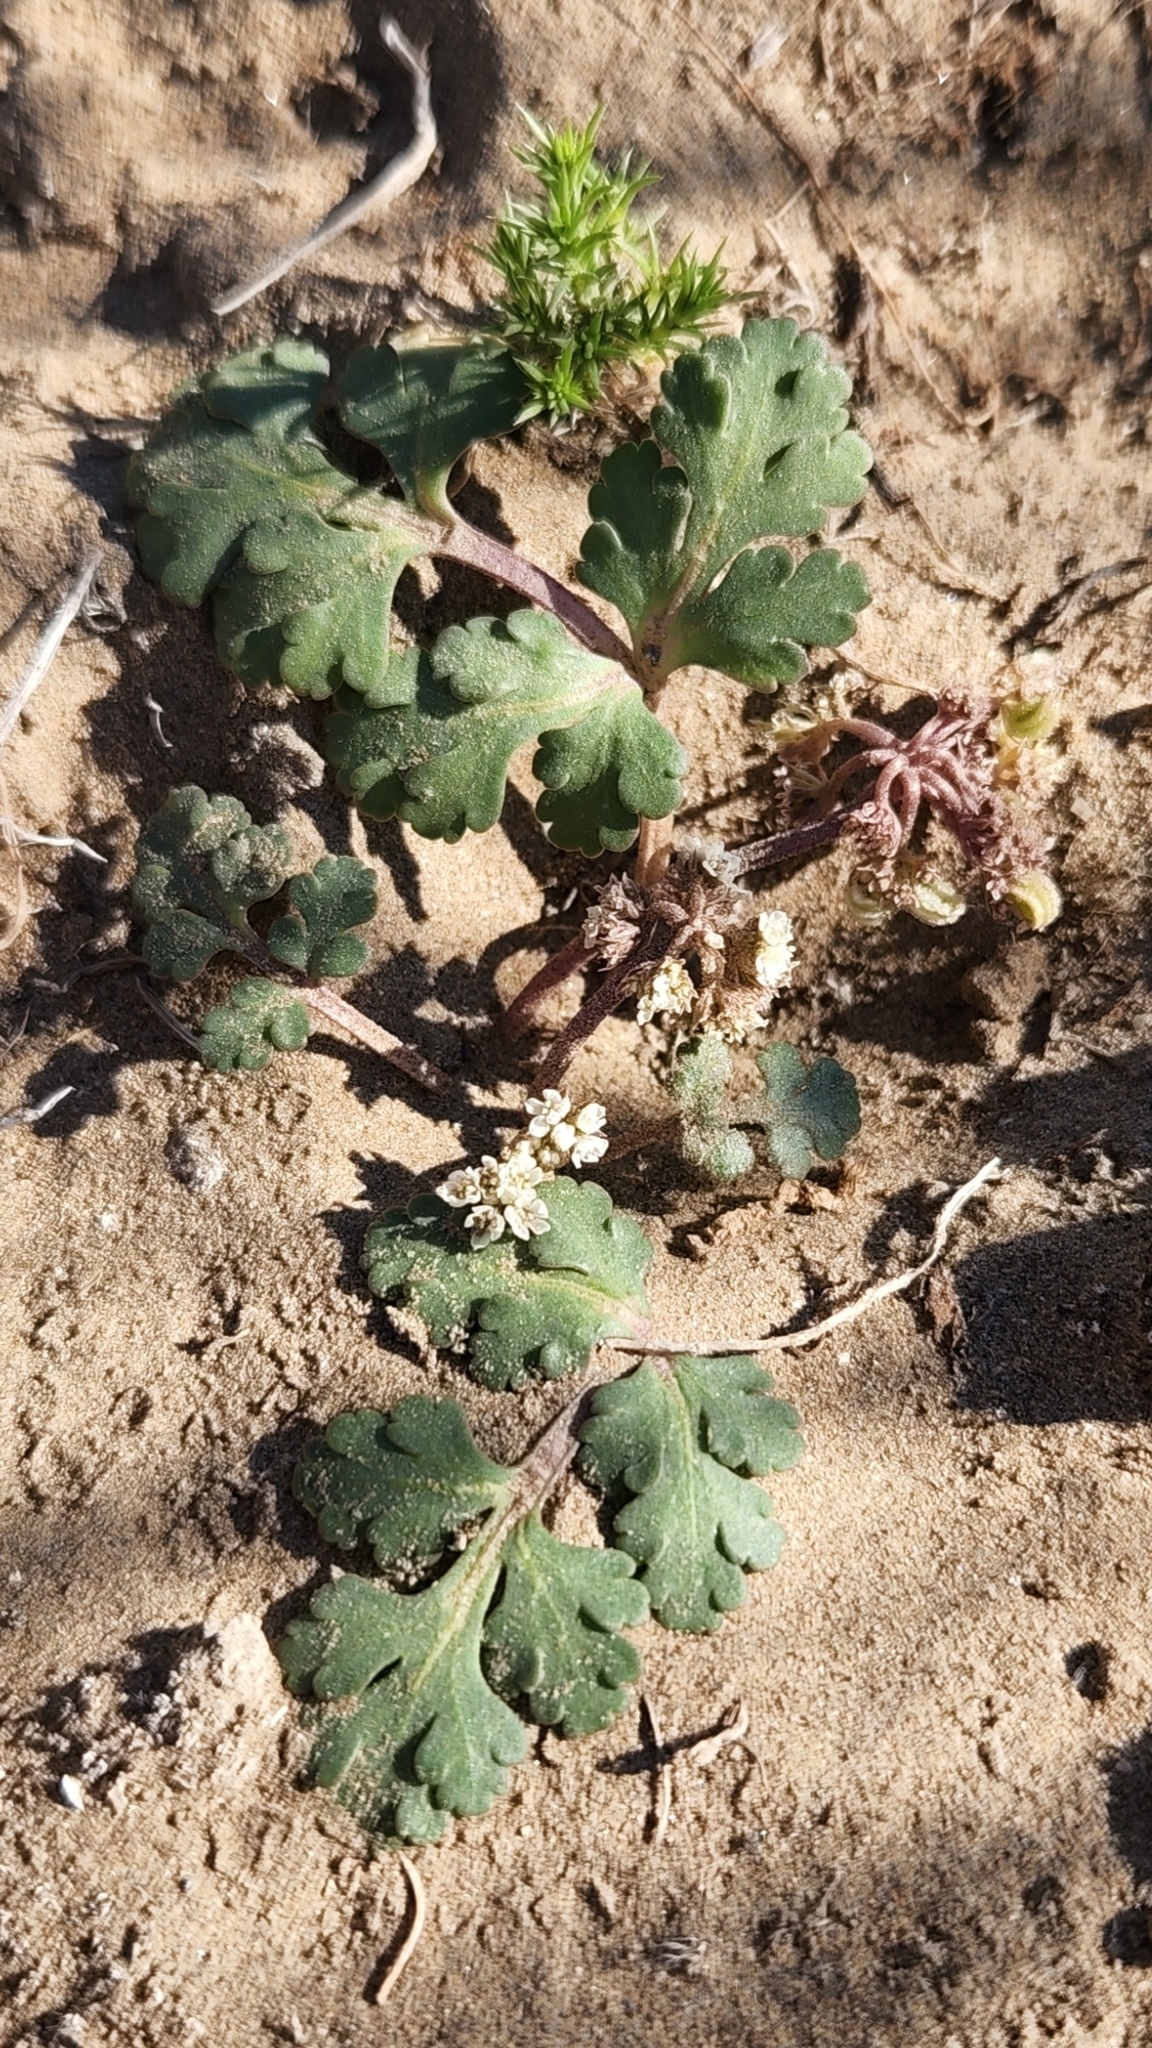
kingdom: Plantae
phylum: Tracheophyta
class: Magnoliopsida
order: Apiales
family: Apiaceae
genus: Rhysopterus
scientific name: Rhysopterus plurijugus
